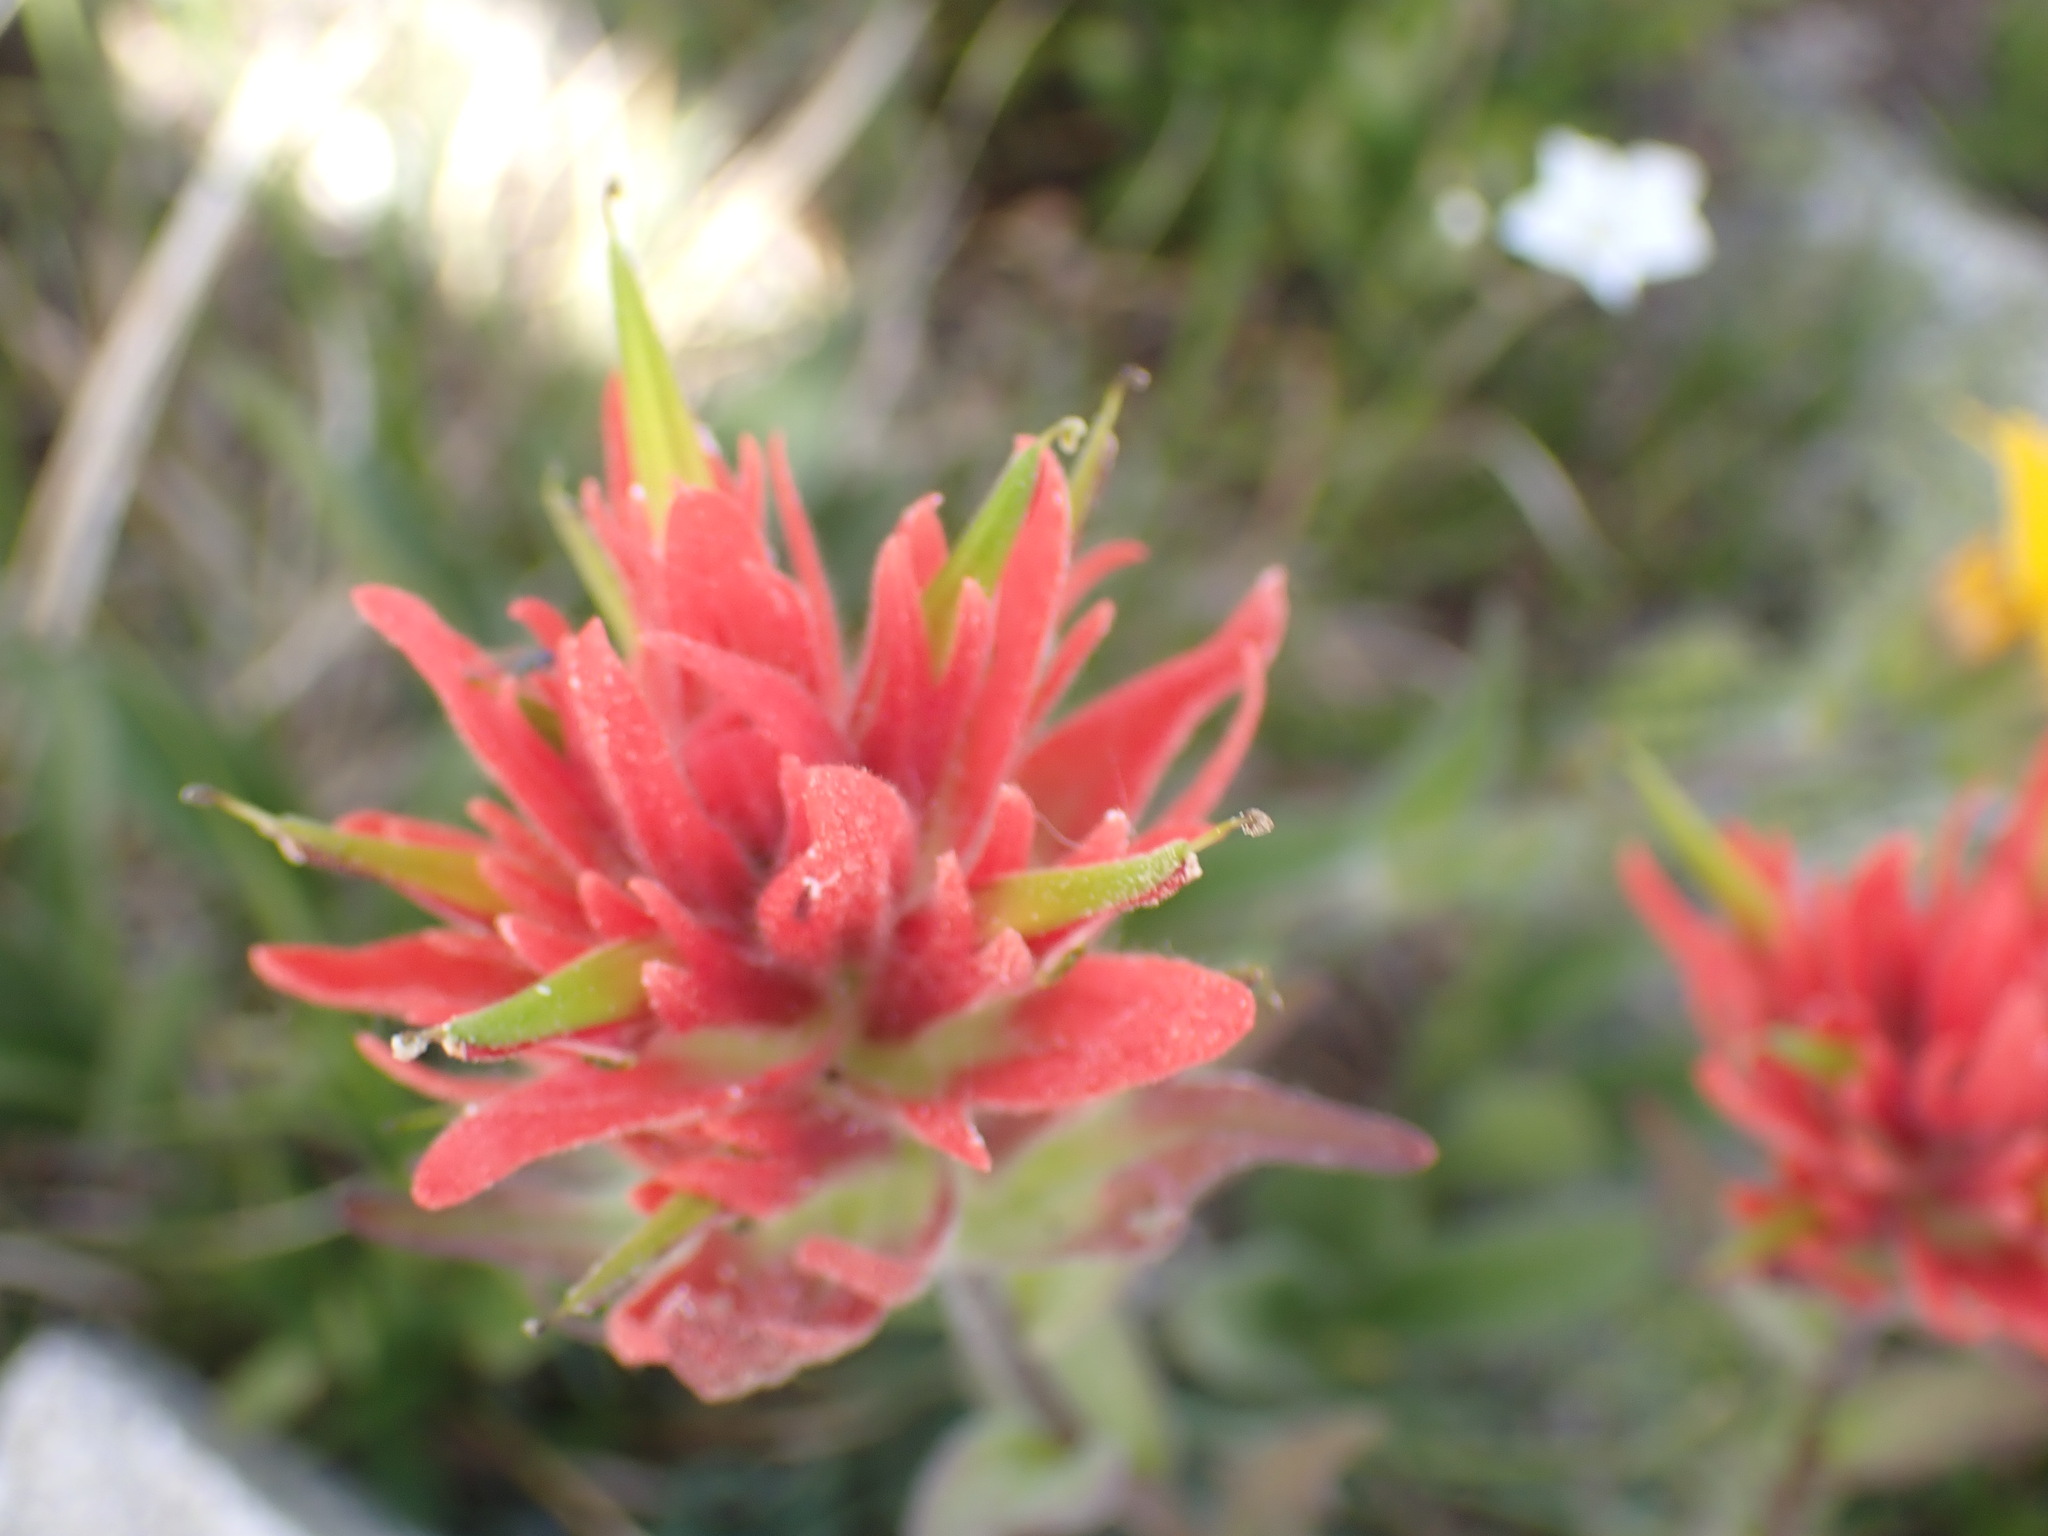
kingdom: Plantae
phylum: Tracheophyta
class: Magnoliopsida
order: Lamiales
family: Orobanchaceae
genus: Castilleja
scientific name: Castilleja miniata
